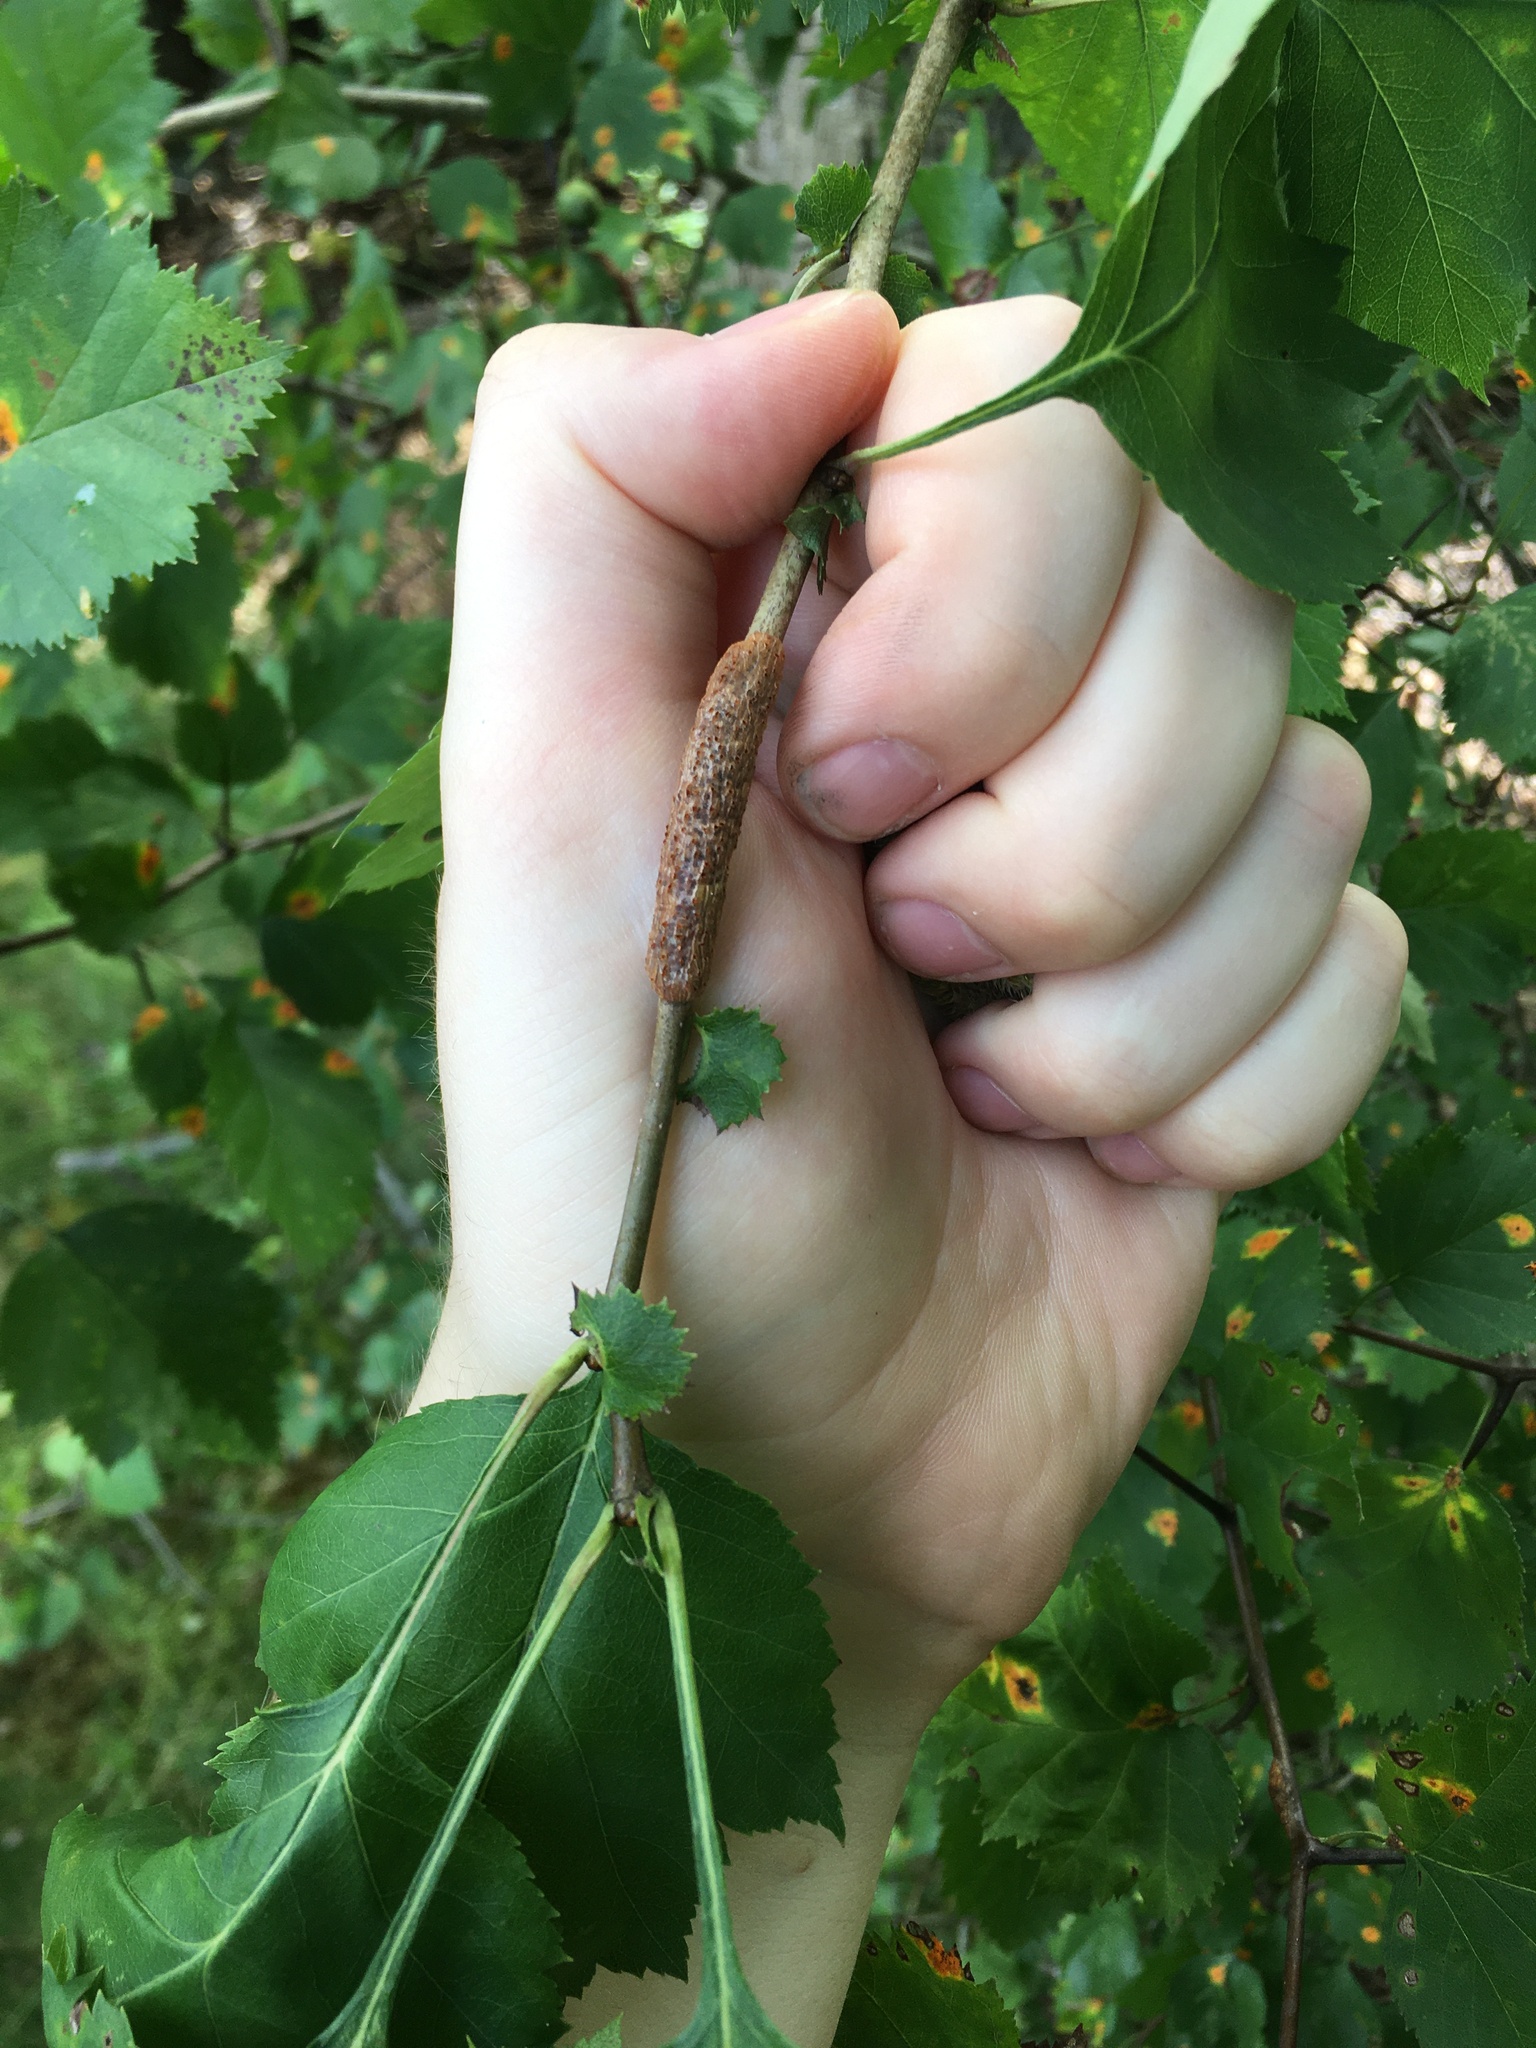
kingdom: Fungi
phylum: Basidiomycota
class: Pucciniomycetes
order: Pucciniales
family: Gymnosporangiaceae
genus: Gymnosporangium
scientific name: Gymnosporangium clavipes
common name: Quince rust
